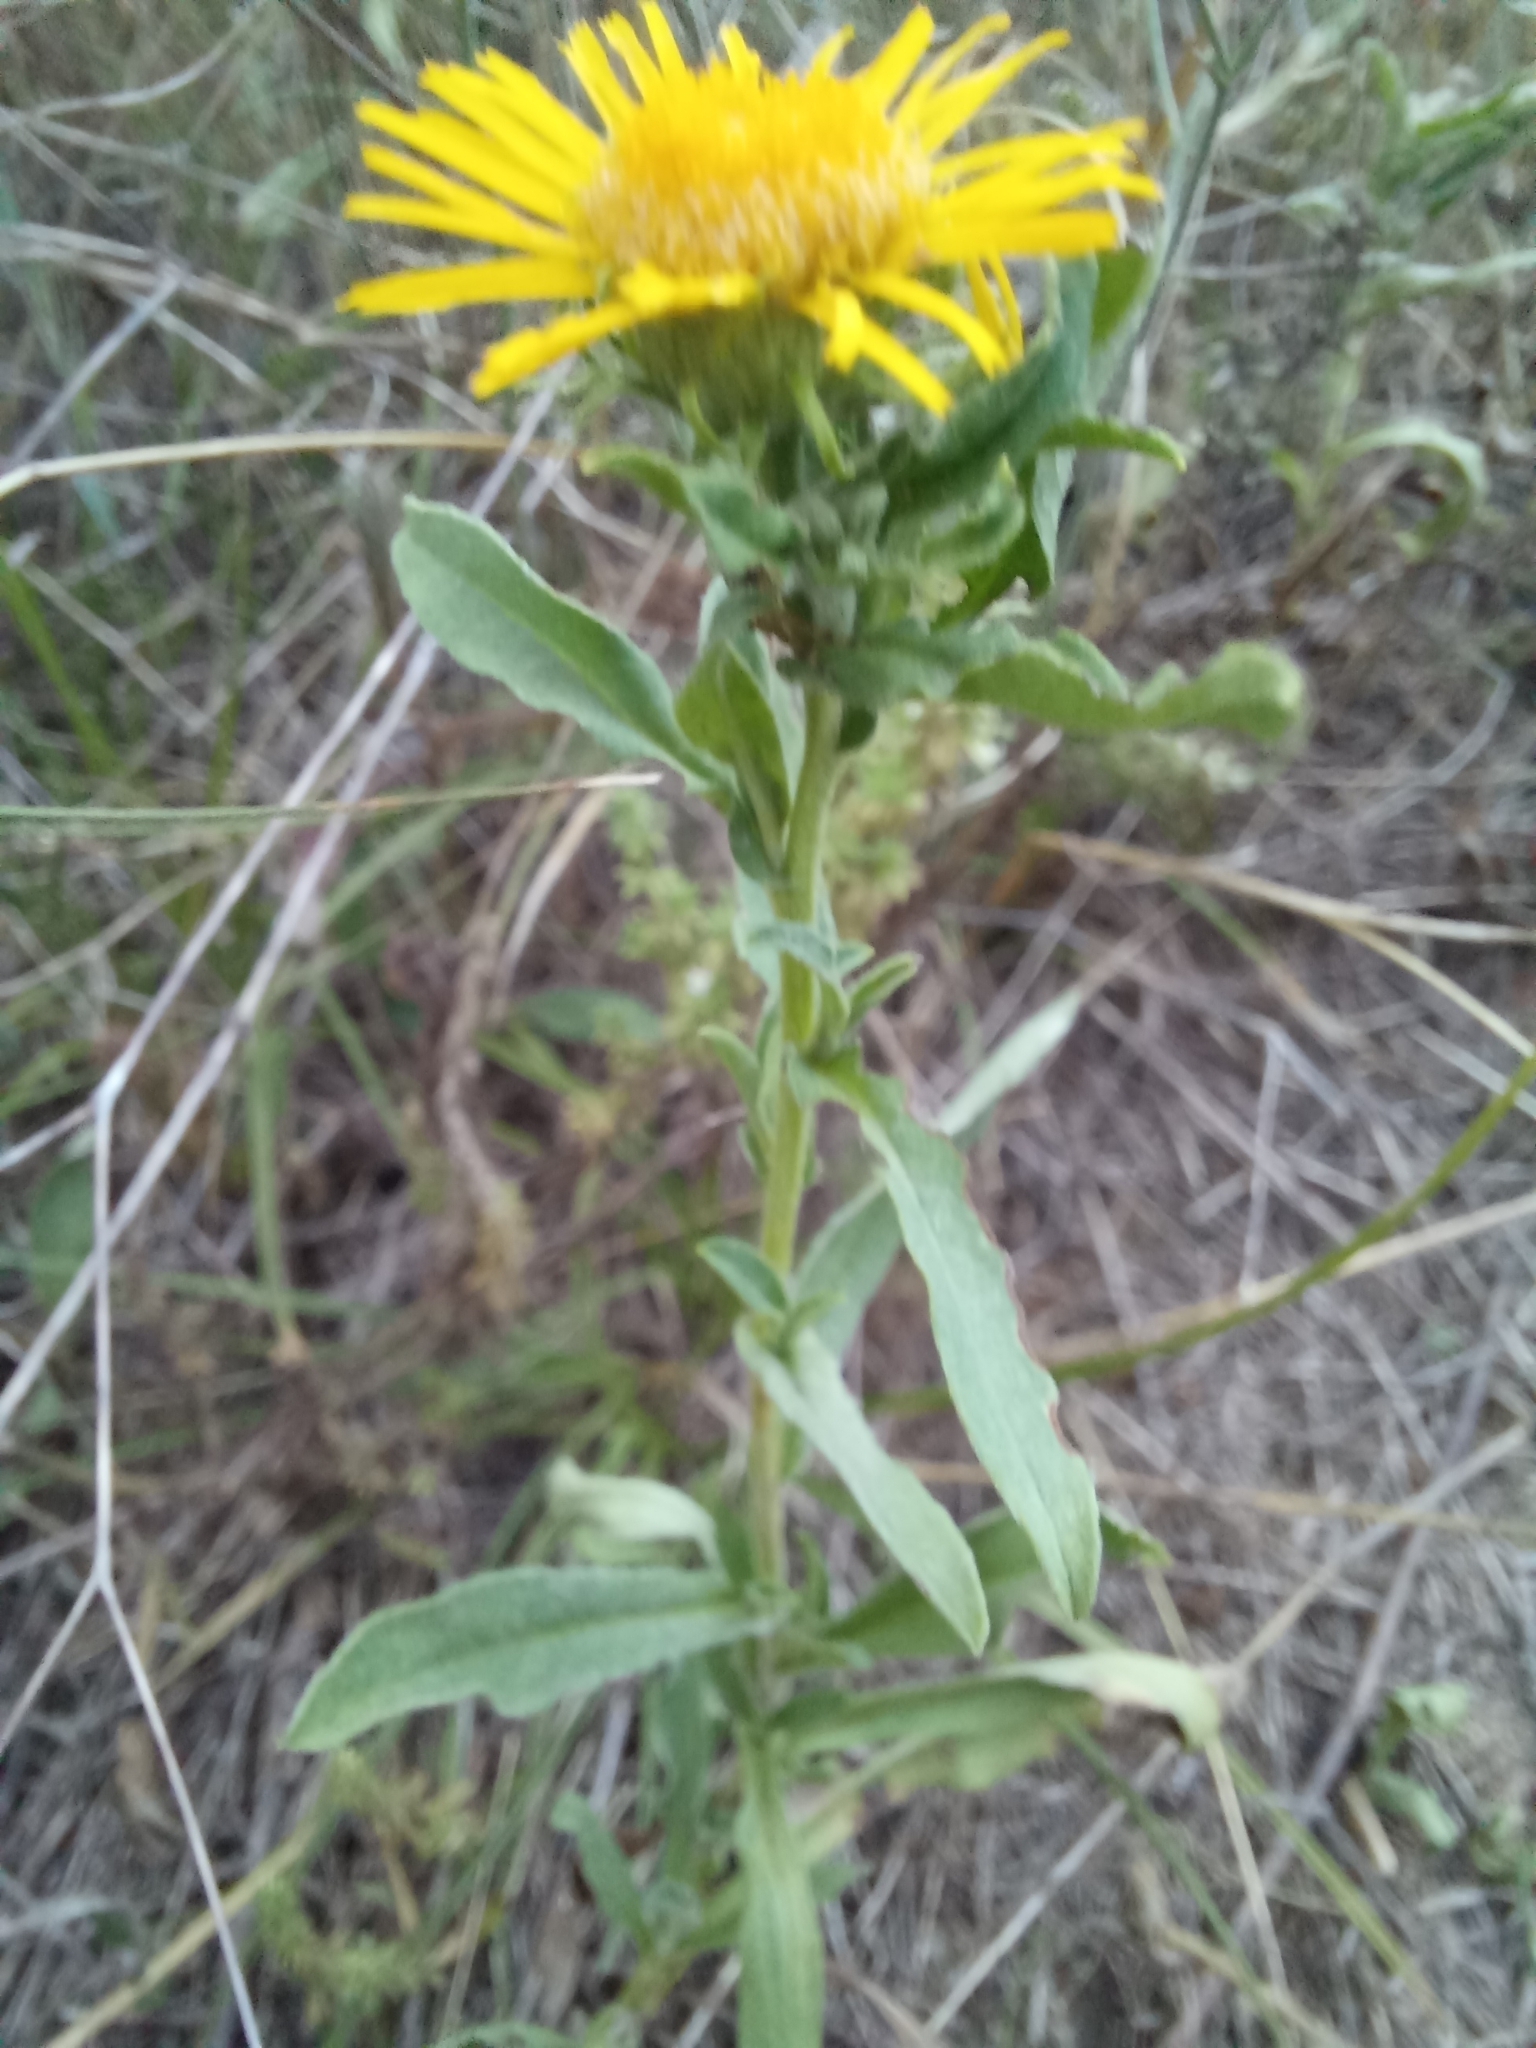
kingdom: Plantae
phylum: Tracheophyta
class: Magnoliopsida
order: Asterales
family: Asteraceae
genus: Pentanema
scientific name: Pentanema britannicum
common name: British elecampane
